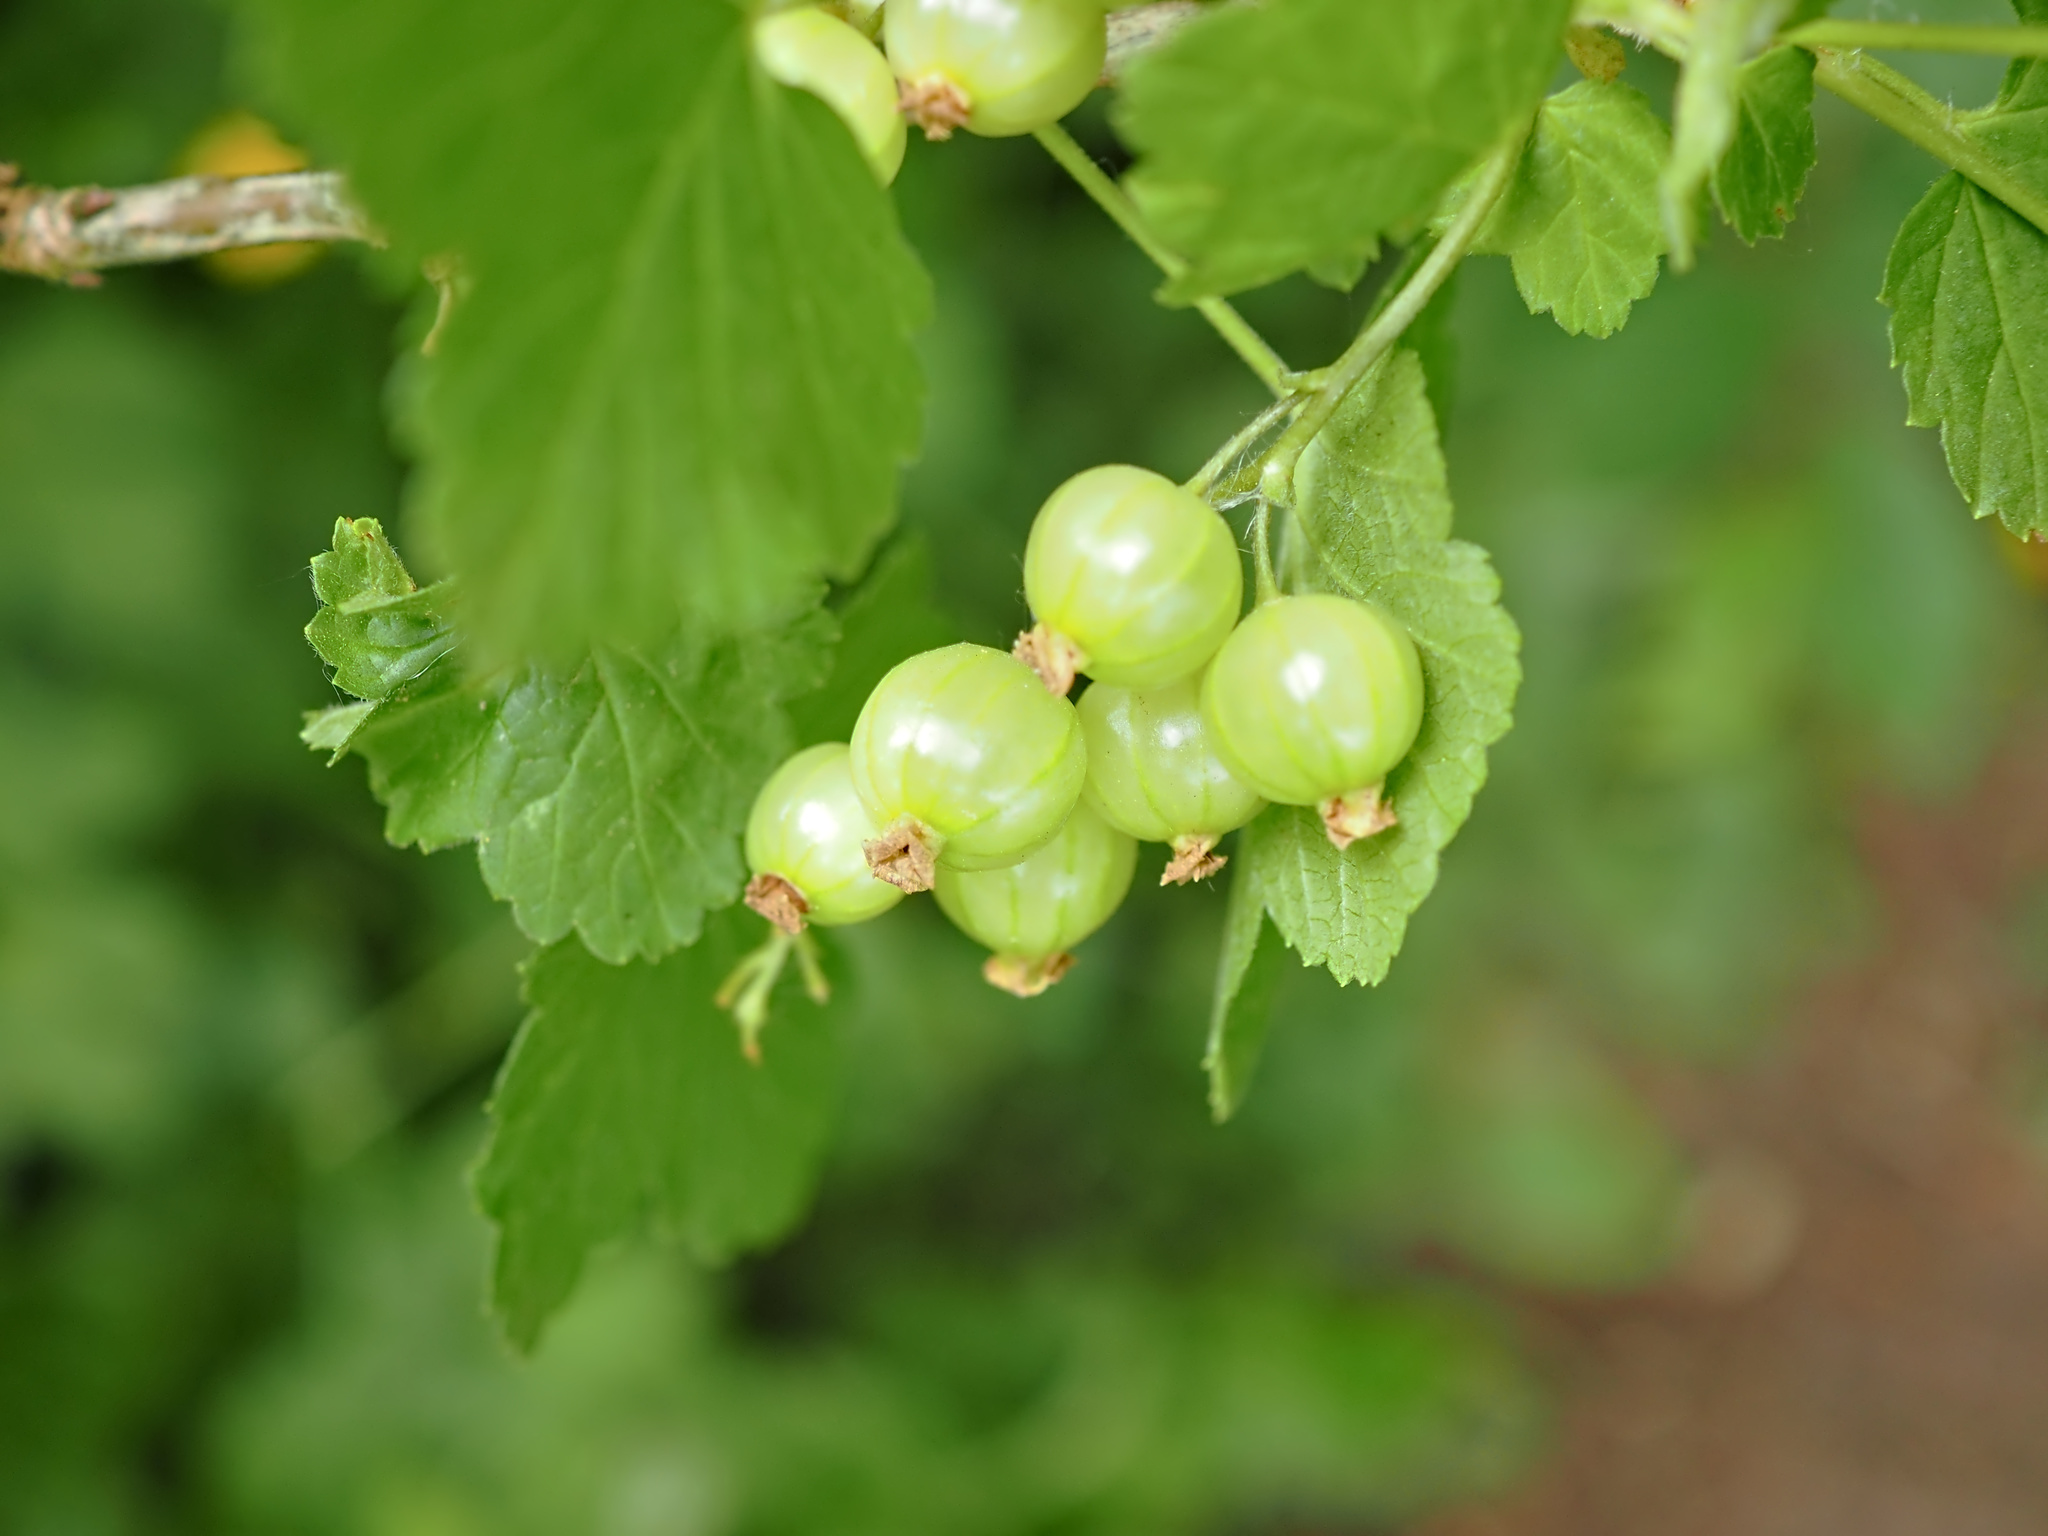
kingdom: Plantae
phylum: Tracheophyta
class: Magnoliopsida
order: Saxifragales
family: Grossulariaceae
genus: Ribes
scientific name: Ribes rubrum
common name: Red currant
